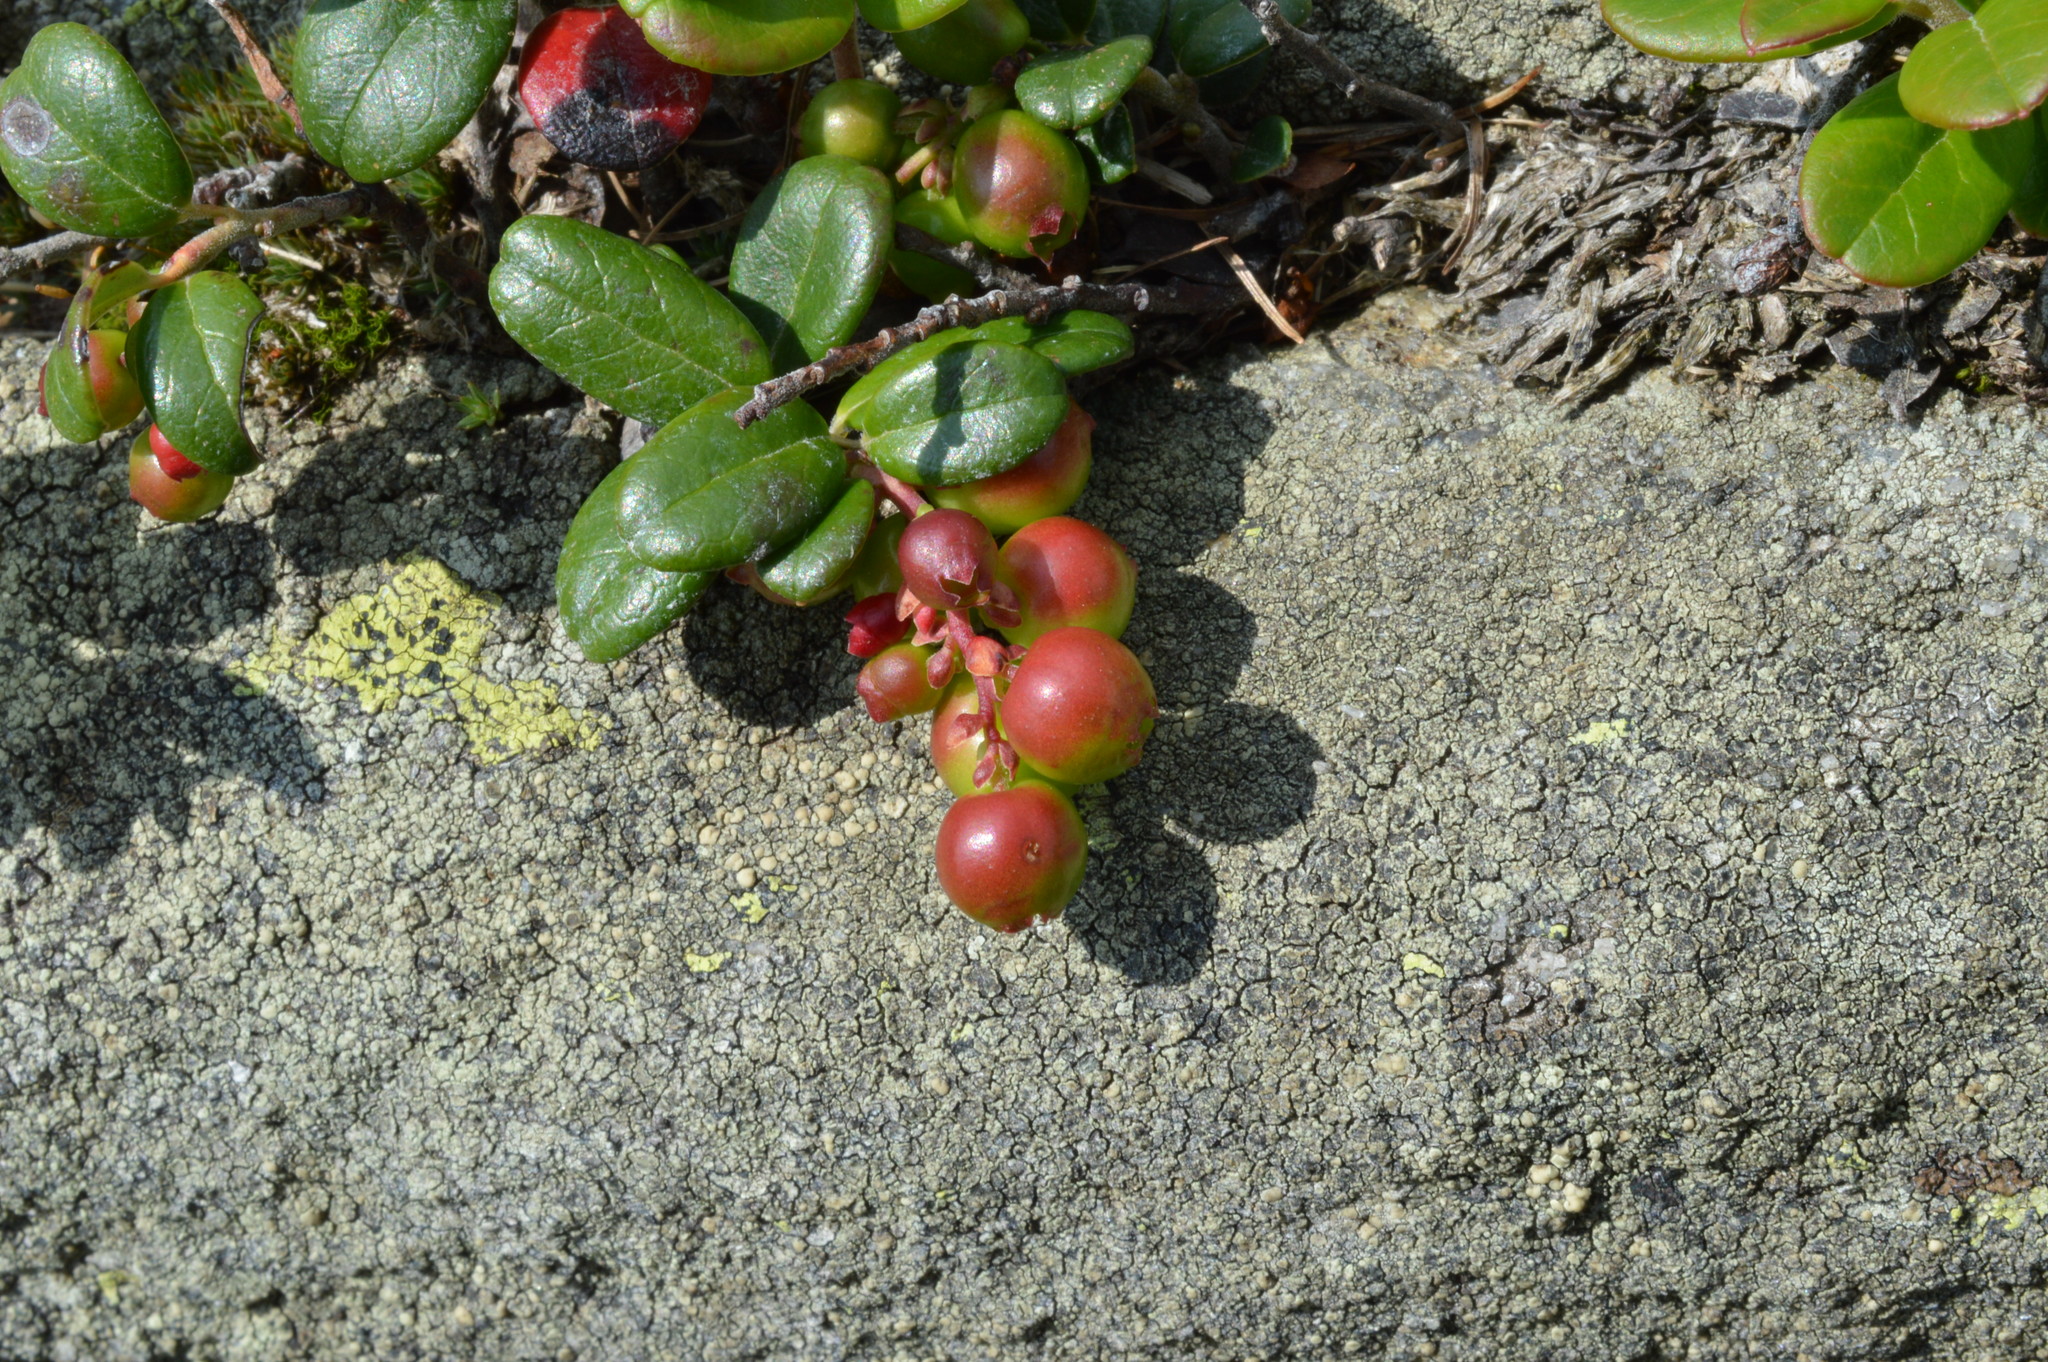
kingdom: Plantae
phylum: Tracheophyta
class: Magnoliopsida
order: Ericales
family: Ericaceae
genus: Vaccinium
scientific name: Vaccinium vitis-idaea
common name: Cowberry
